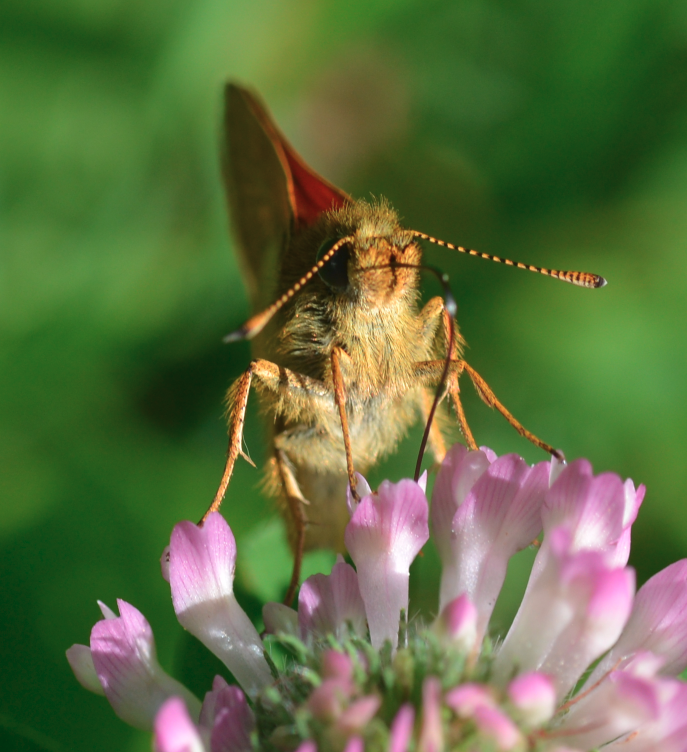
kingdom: Animalia
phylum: Arthropoda
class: Insecta
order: Lepidoptera
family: Hesperiidae
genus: Ochlodes
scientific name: Ochlodes venata
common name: Large skipper
